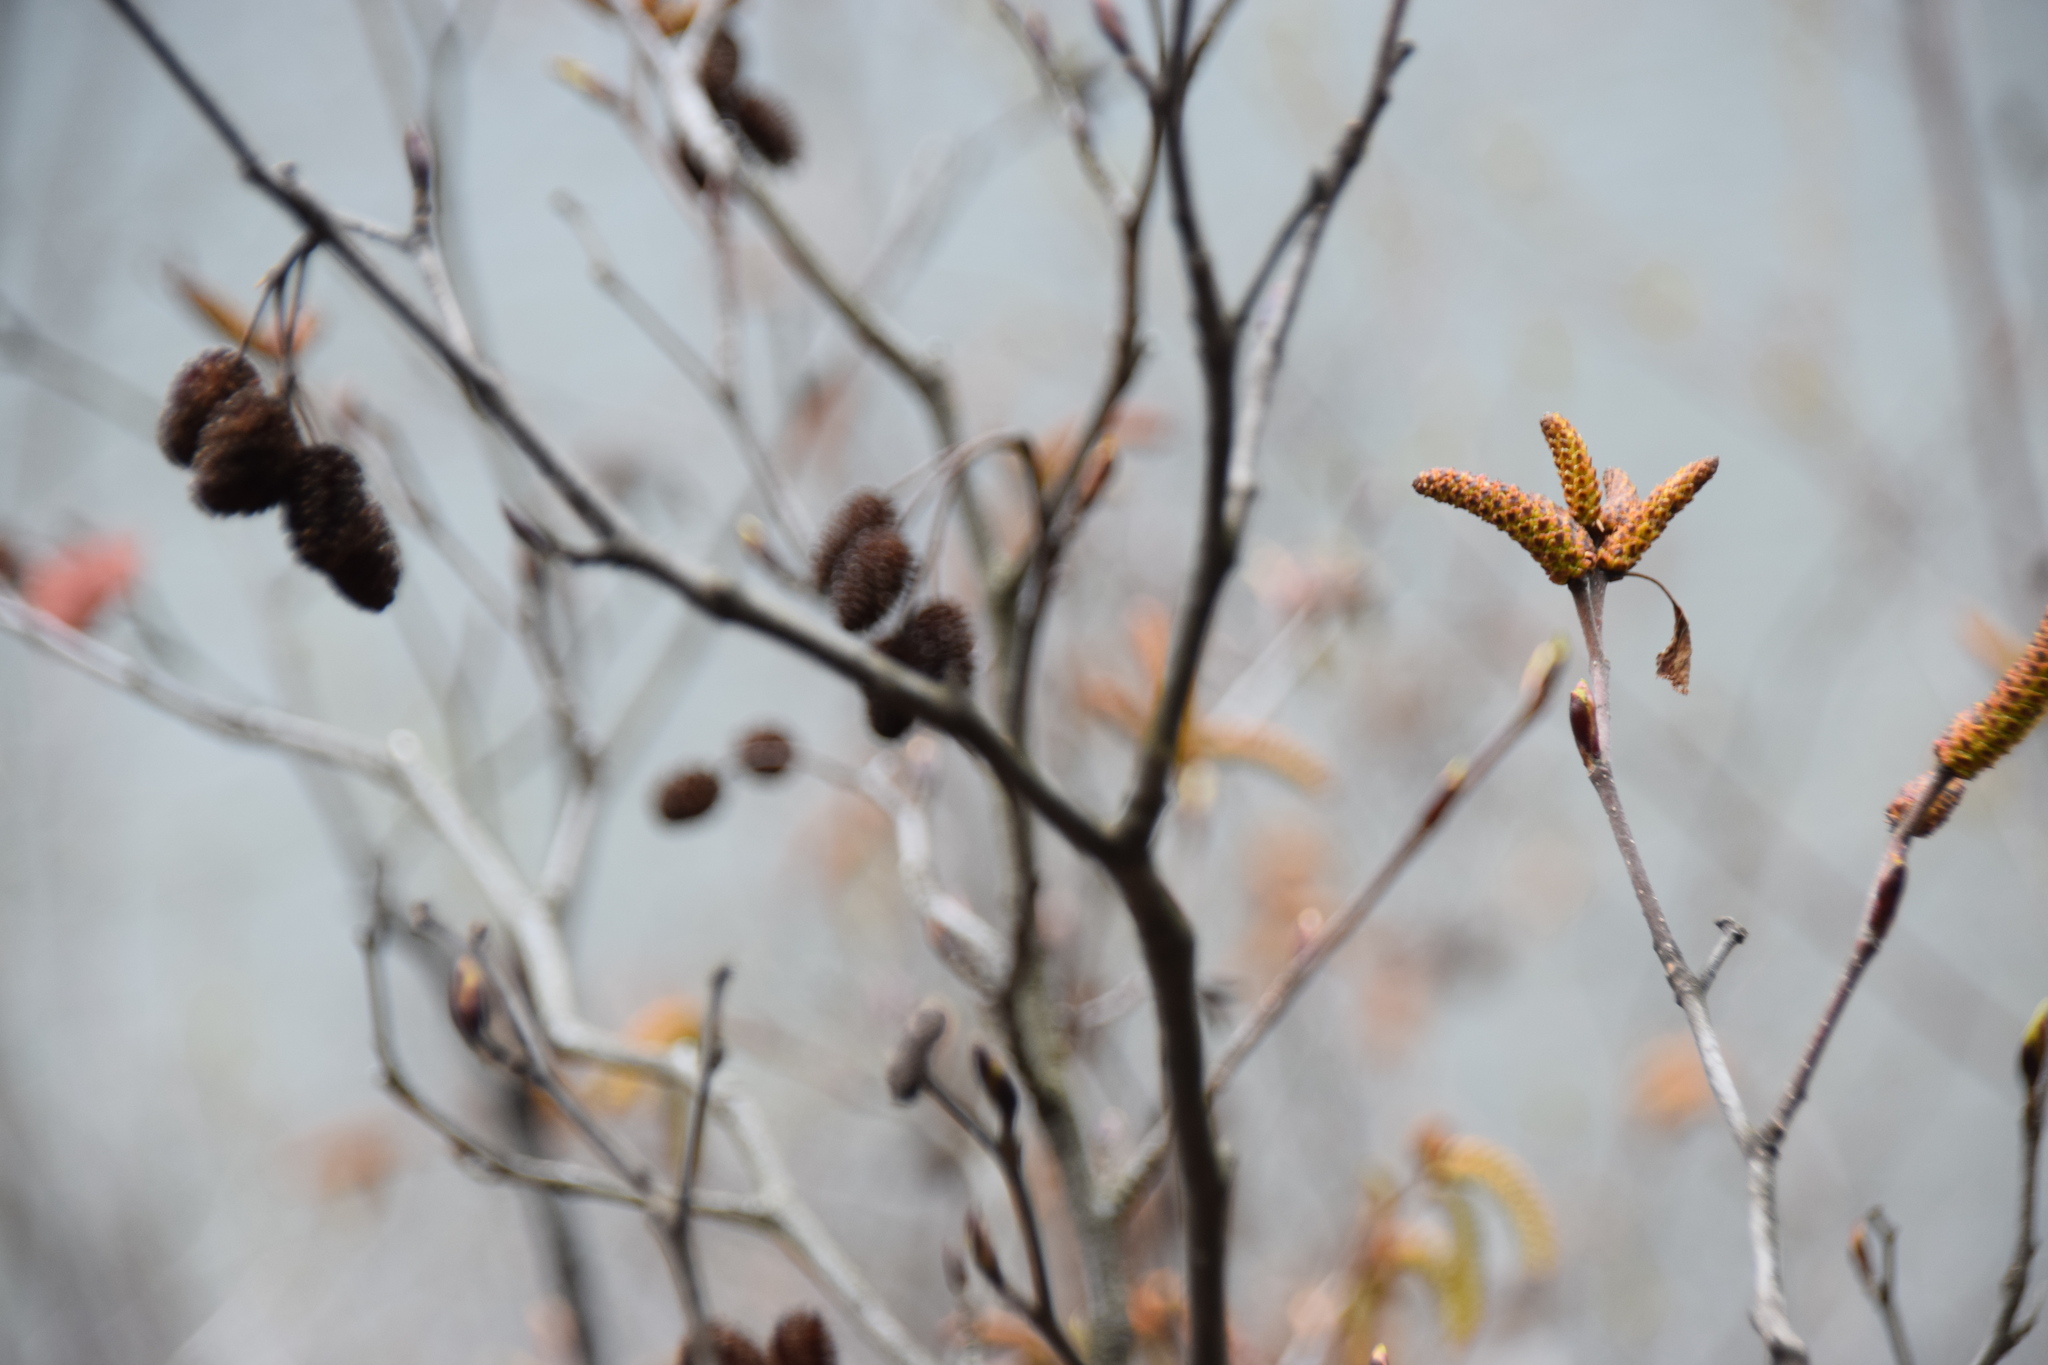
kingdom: Plantae
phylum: Tracheophyta
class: Magnoliopsida
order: Fagales
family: Betulaceae
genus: Alnus
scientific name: Alnus alnobetula
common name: Green alder
